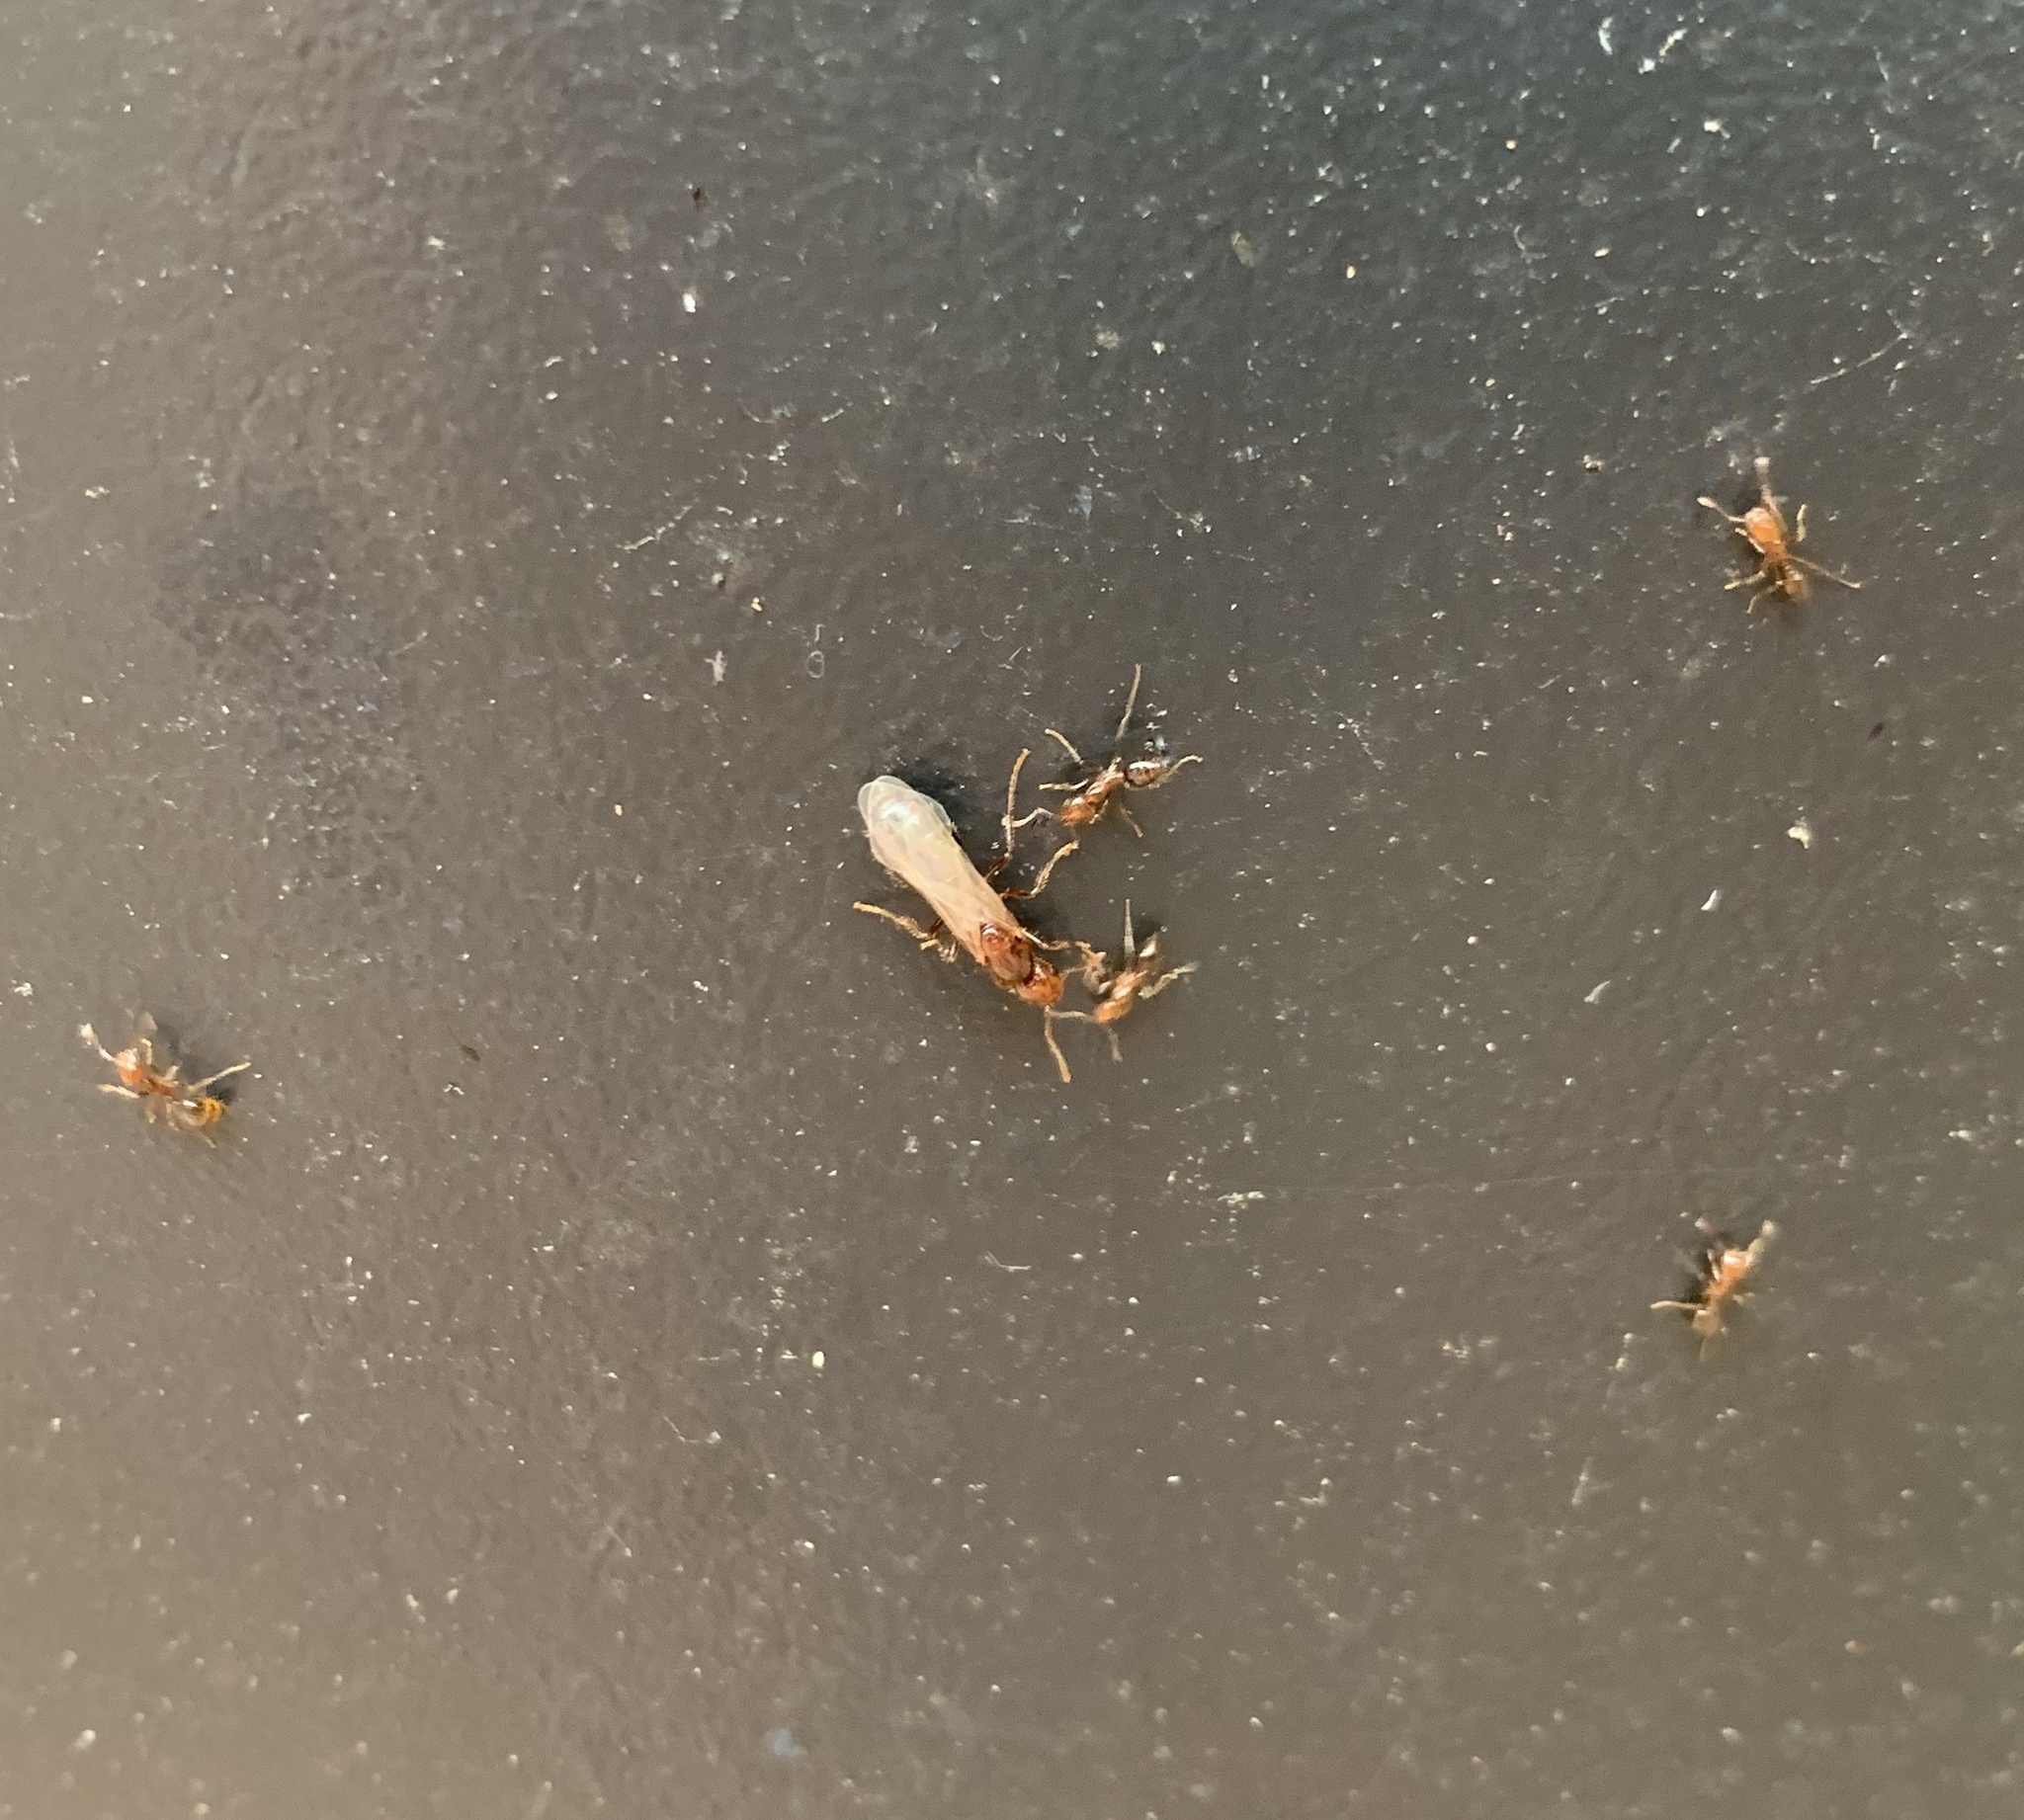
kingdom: Animalia
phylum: Arthropoda
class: Insecta
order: Hymenoptera
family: Formicidae
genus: Solenopsis
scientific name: Solenopsis invicta
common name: Red imported fire ant
